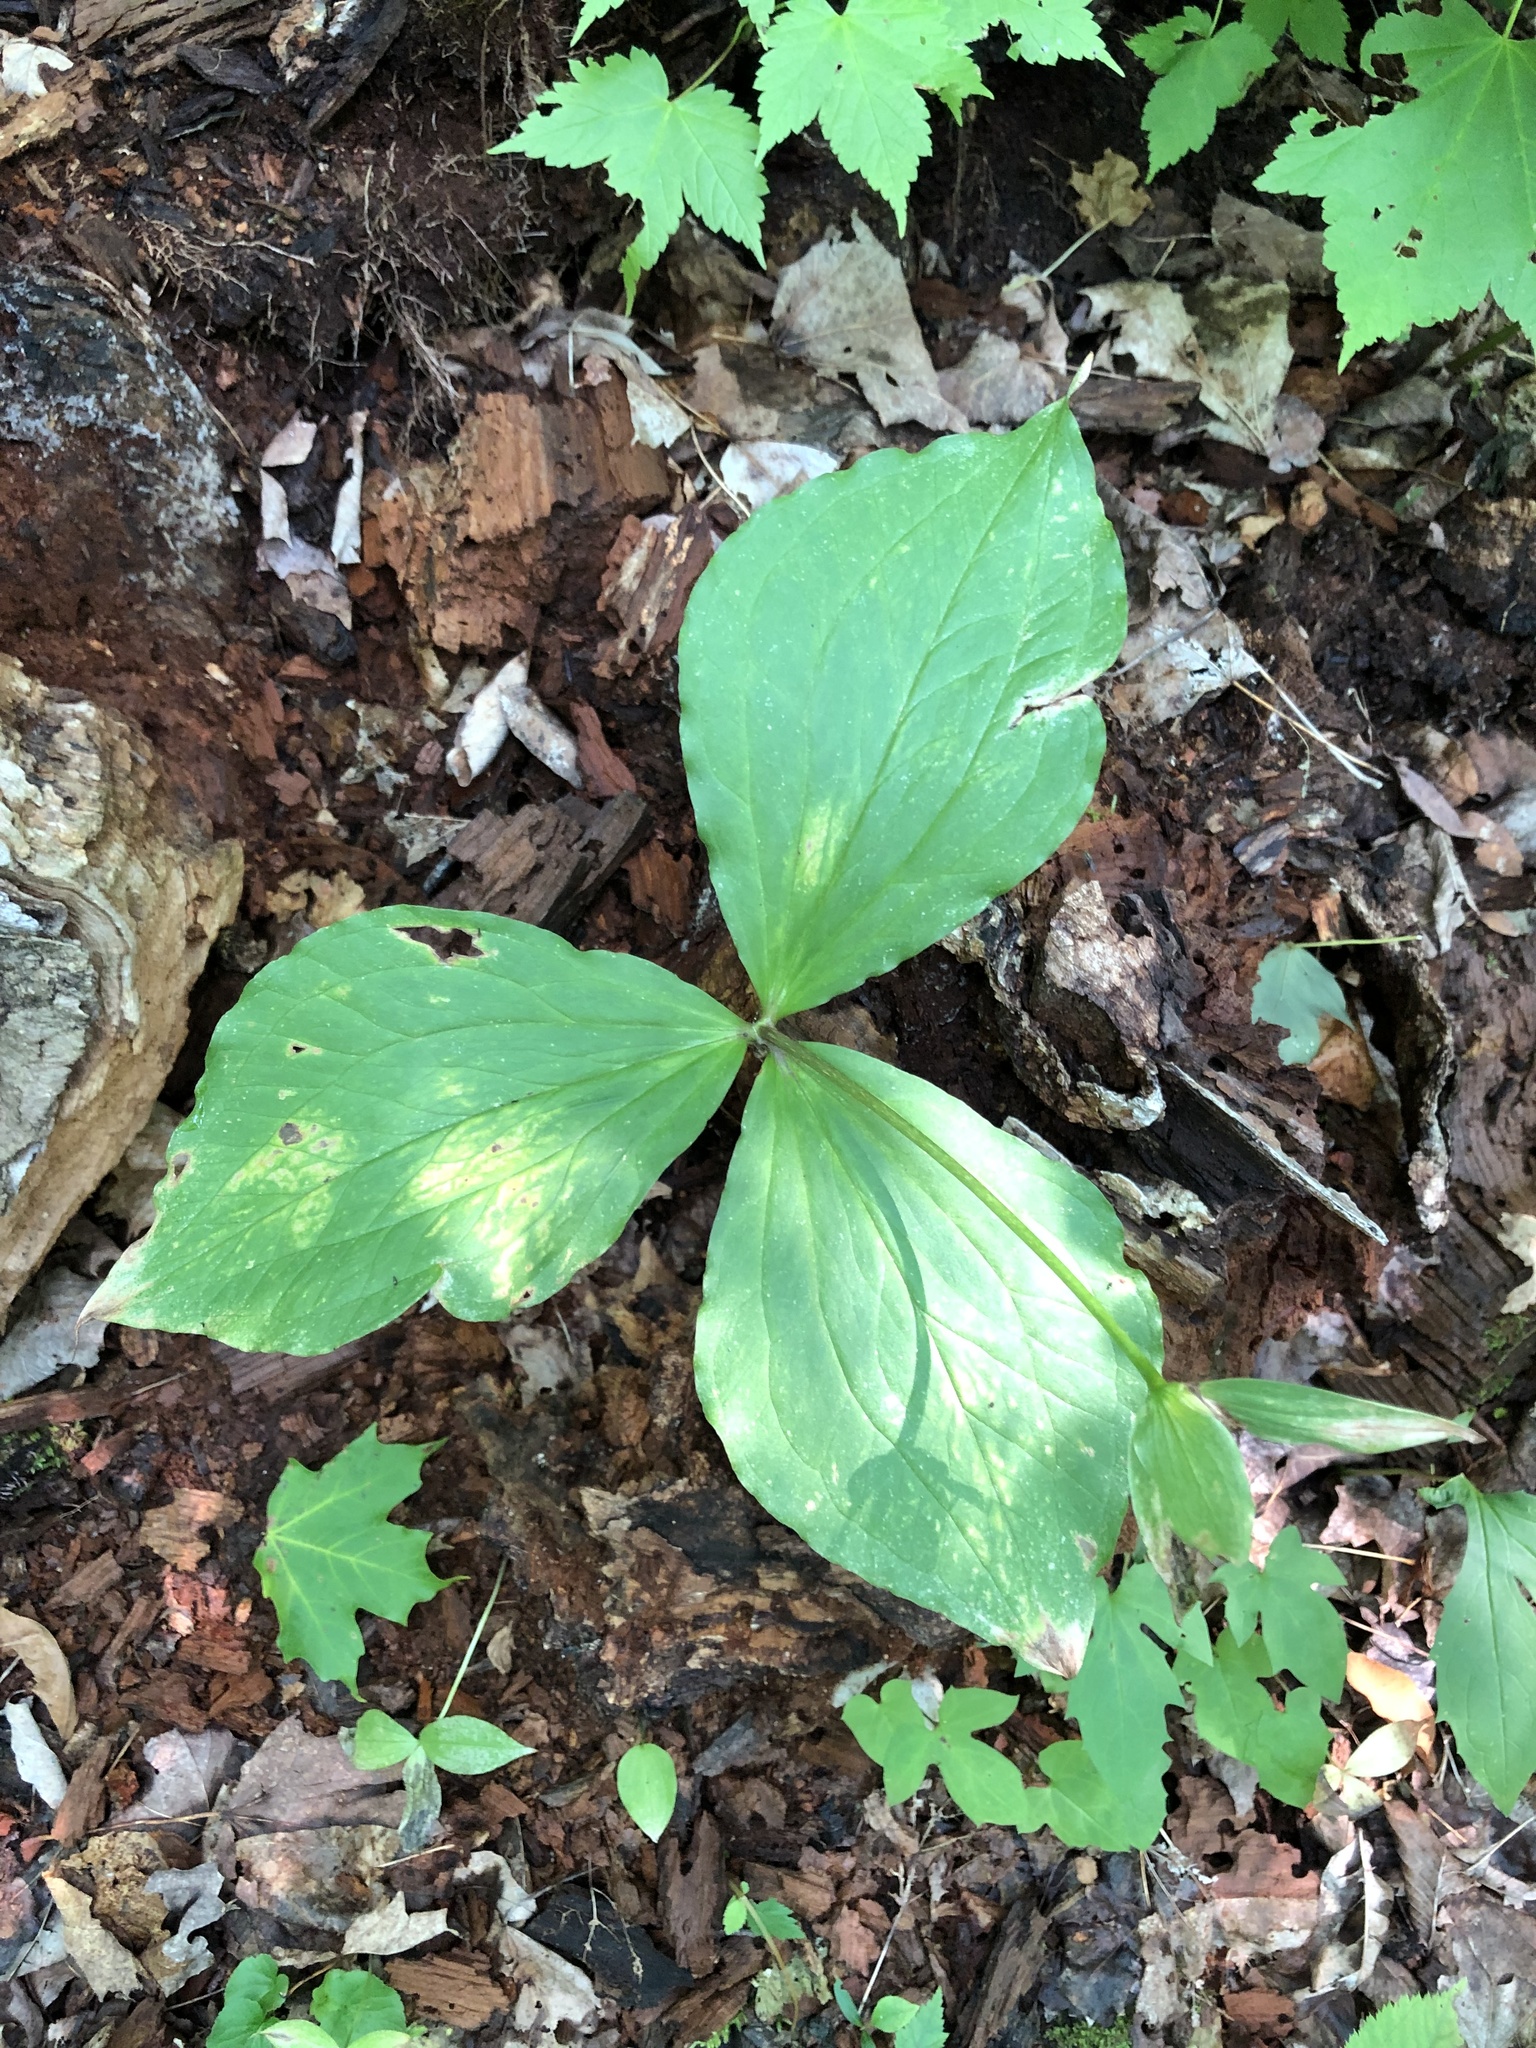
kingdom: Plantae
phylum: Tracheophyta
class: Liliopsida
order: Liliales
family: Melanthiaceae
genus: Trillium
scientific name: Trillium grandiflorum
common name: Great white trillium
